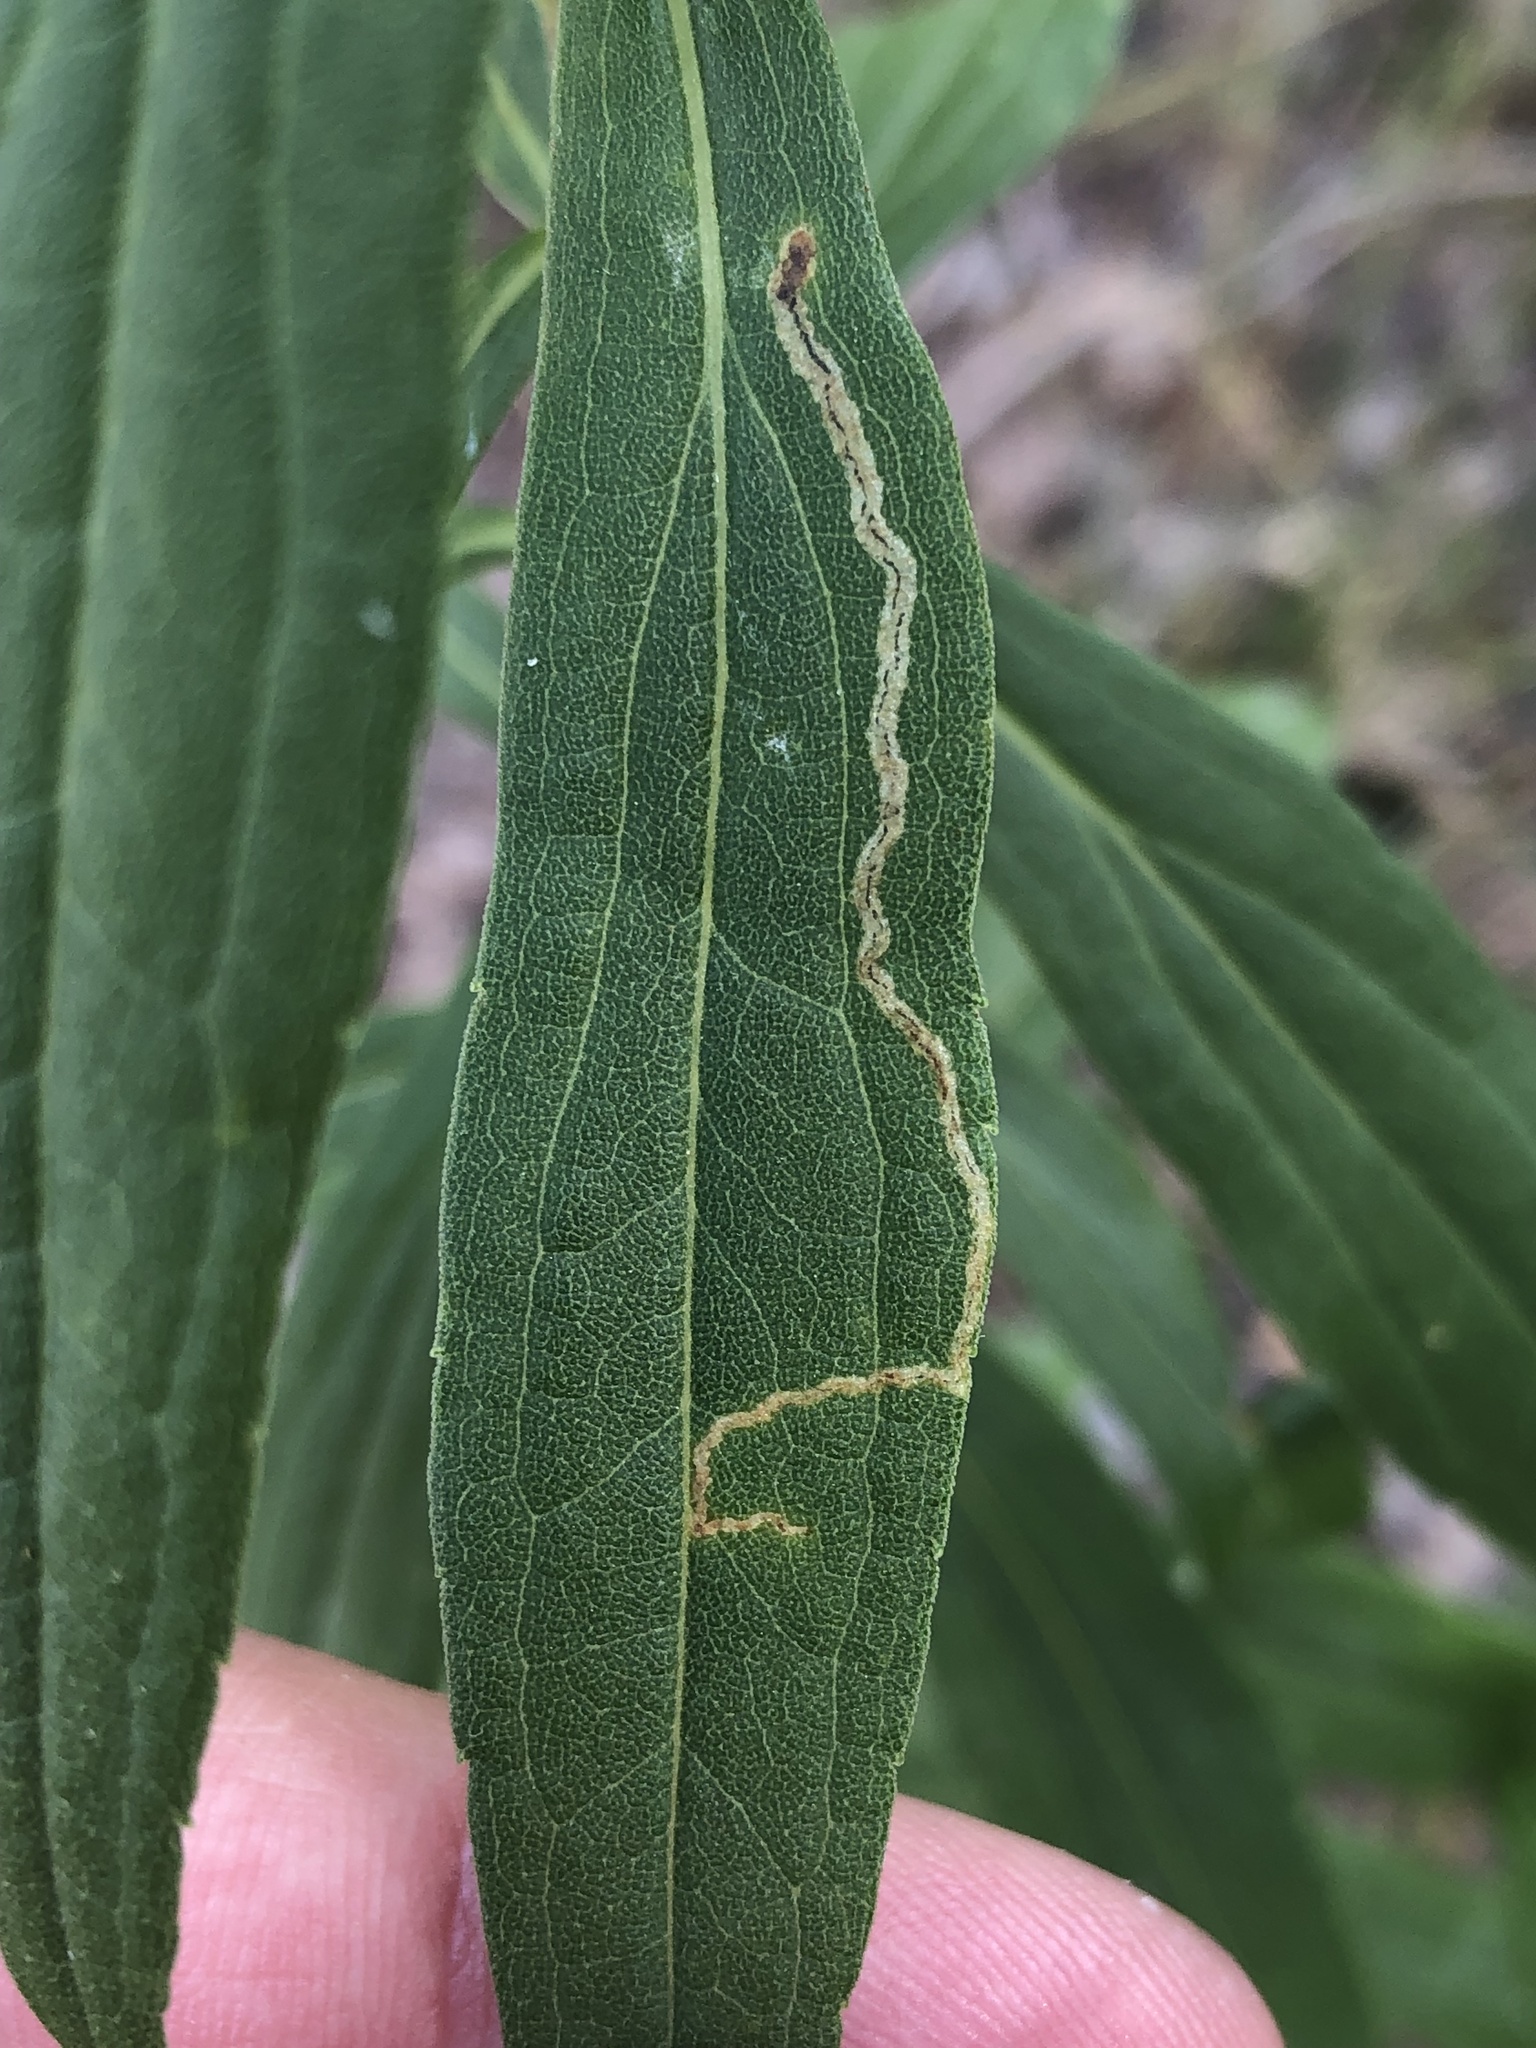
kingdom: Animalia
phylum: Arthropoda
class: Insecta
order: Diptera
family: Agromyzidae
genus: Liriomyza
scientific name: Liriomyza eupatorii
